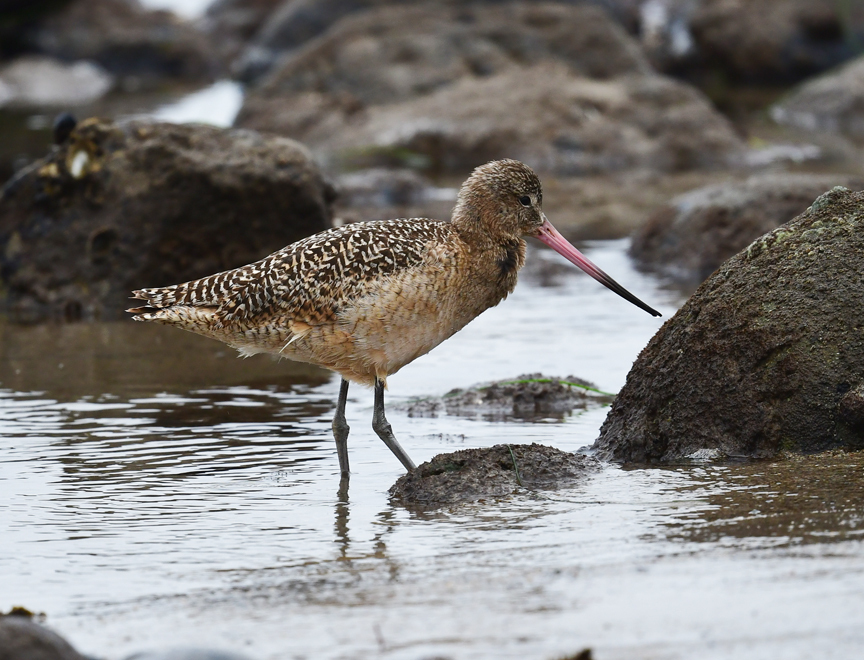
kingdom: Animalia
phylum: Chordata
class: Aves
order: Charadriiformes
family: Scolopacidae
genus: Limosa
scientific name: Limosa fedoa
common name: Marbled godwit
